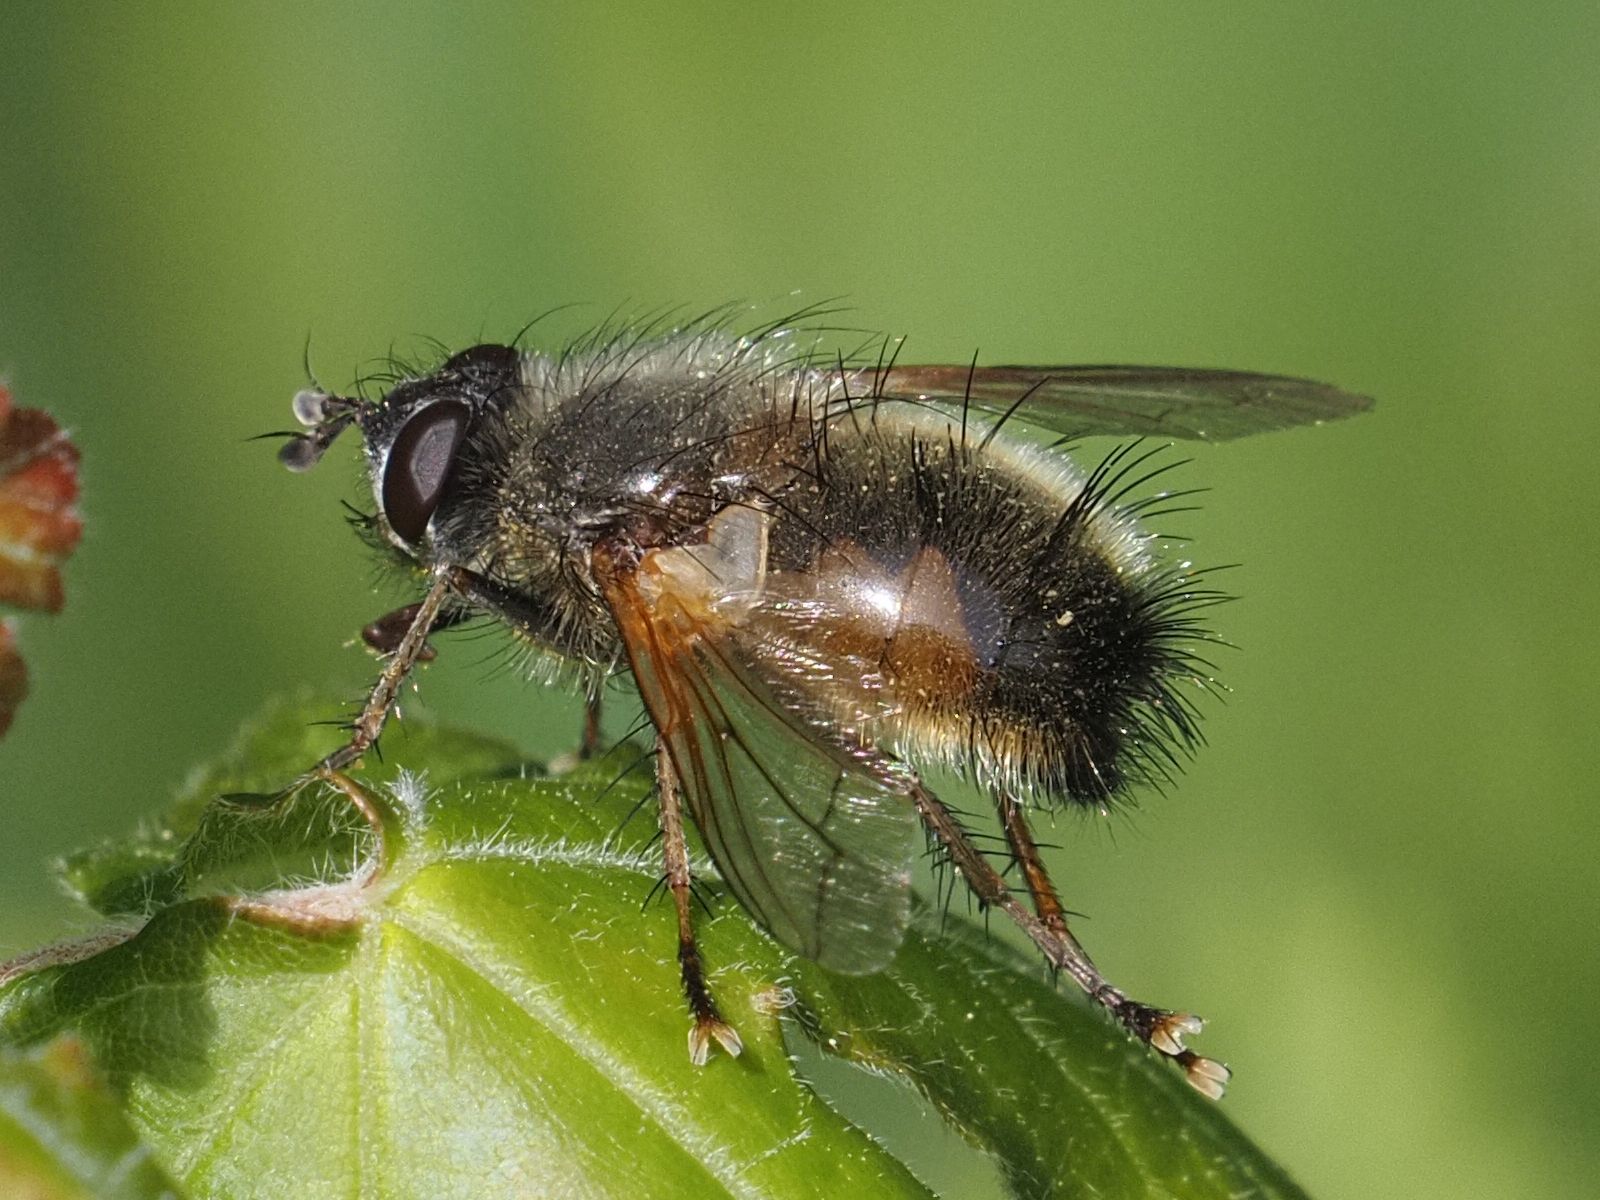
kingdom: Animalia
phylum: Arthropoda
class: Insecta
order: Diptera
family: Tachinidae
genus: Tachina
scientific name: Tachina lurida
